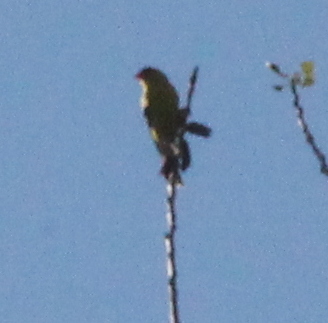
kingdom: Animalia
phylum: Chordata
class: Aves
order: Passeriformes
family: Fringillidae
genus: Spinus
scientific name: Spinus tristis
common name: American goldfinch
